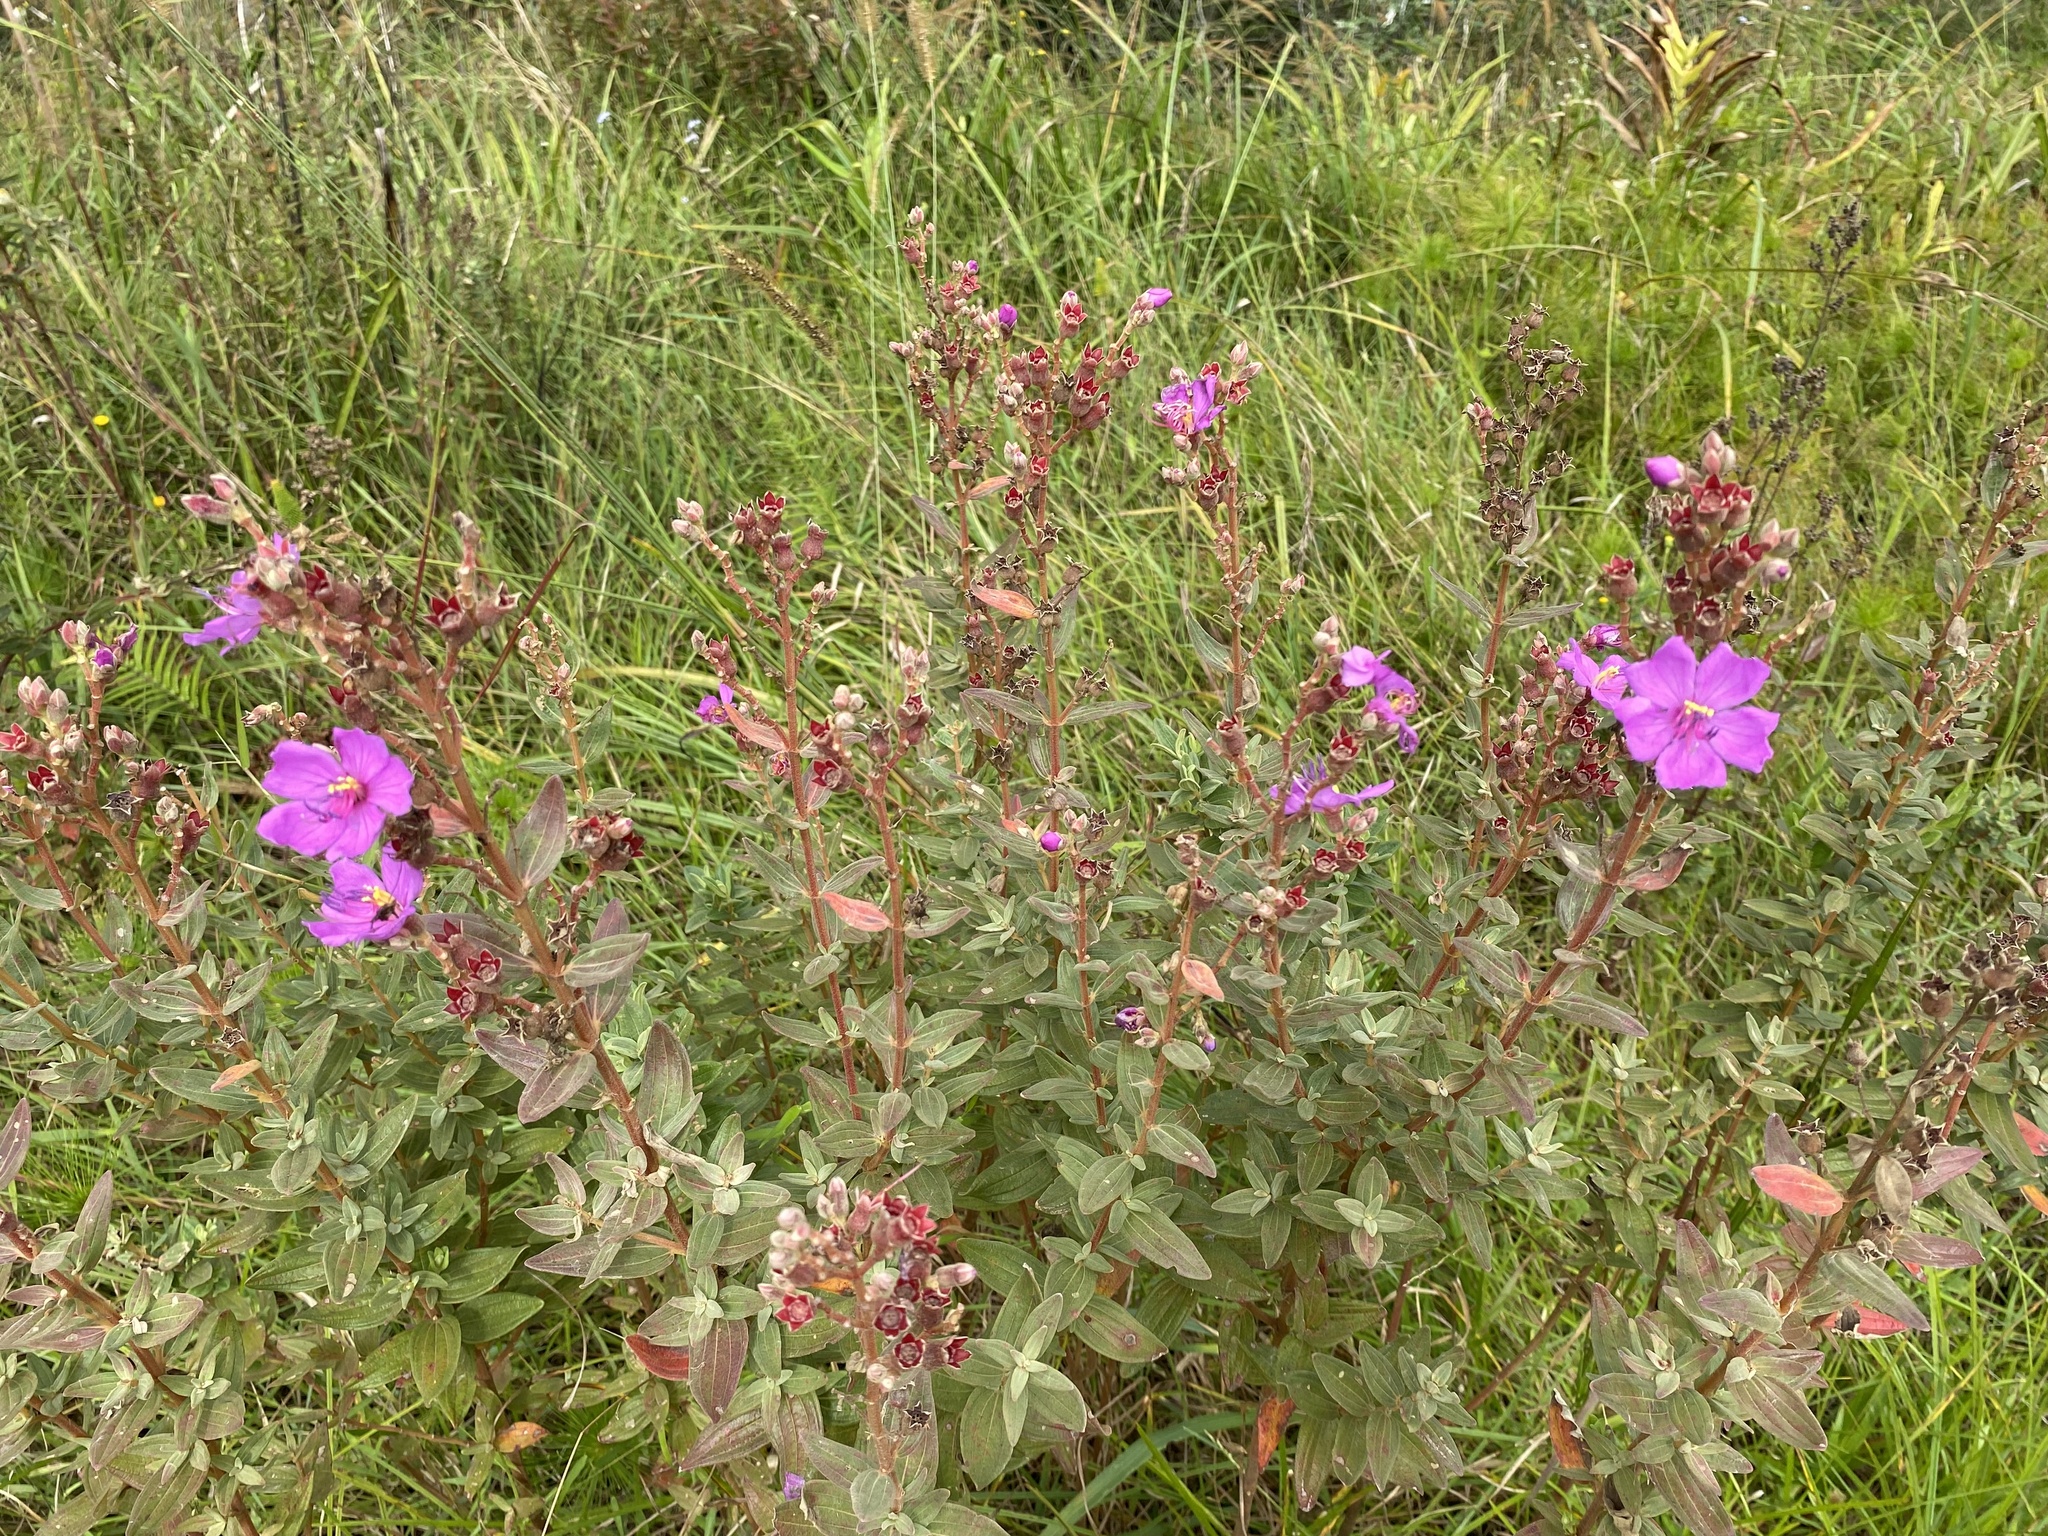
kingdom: Plantae
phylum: Tracheophyta
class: Magnoliopsida
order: Myrtales
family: Melastomataceae
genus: Argyrella
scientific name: Argyrella canescens
